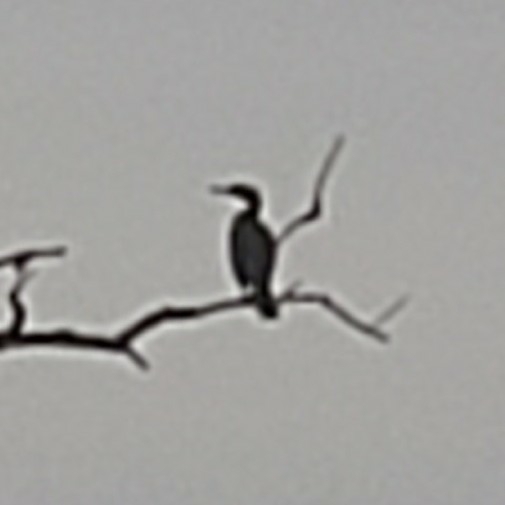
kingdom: Animalia
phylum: Chordata
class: Aves
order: Suliformes
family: Phalacrocoracidae
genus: Phalacrocorax
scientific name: Phalacrocorax auritus
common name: Double-crested cormorant
